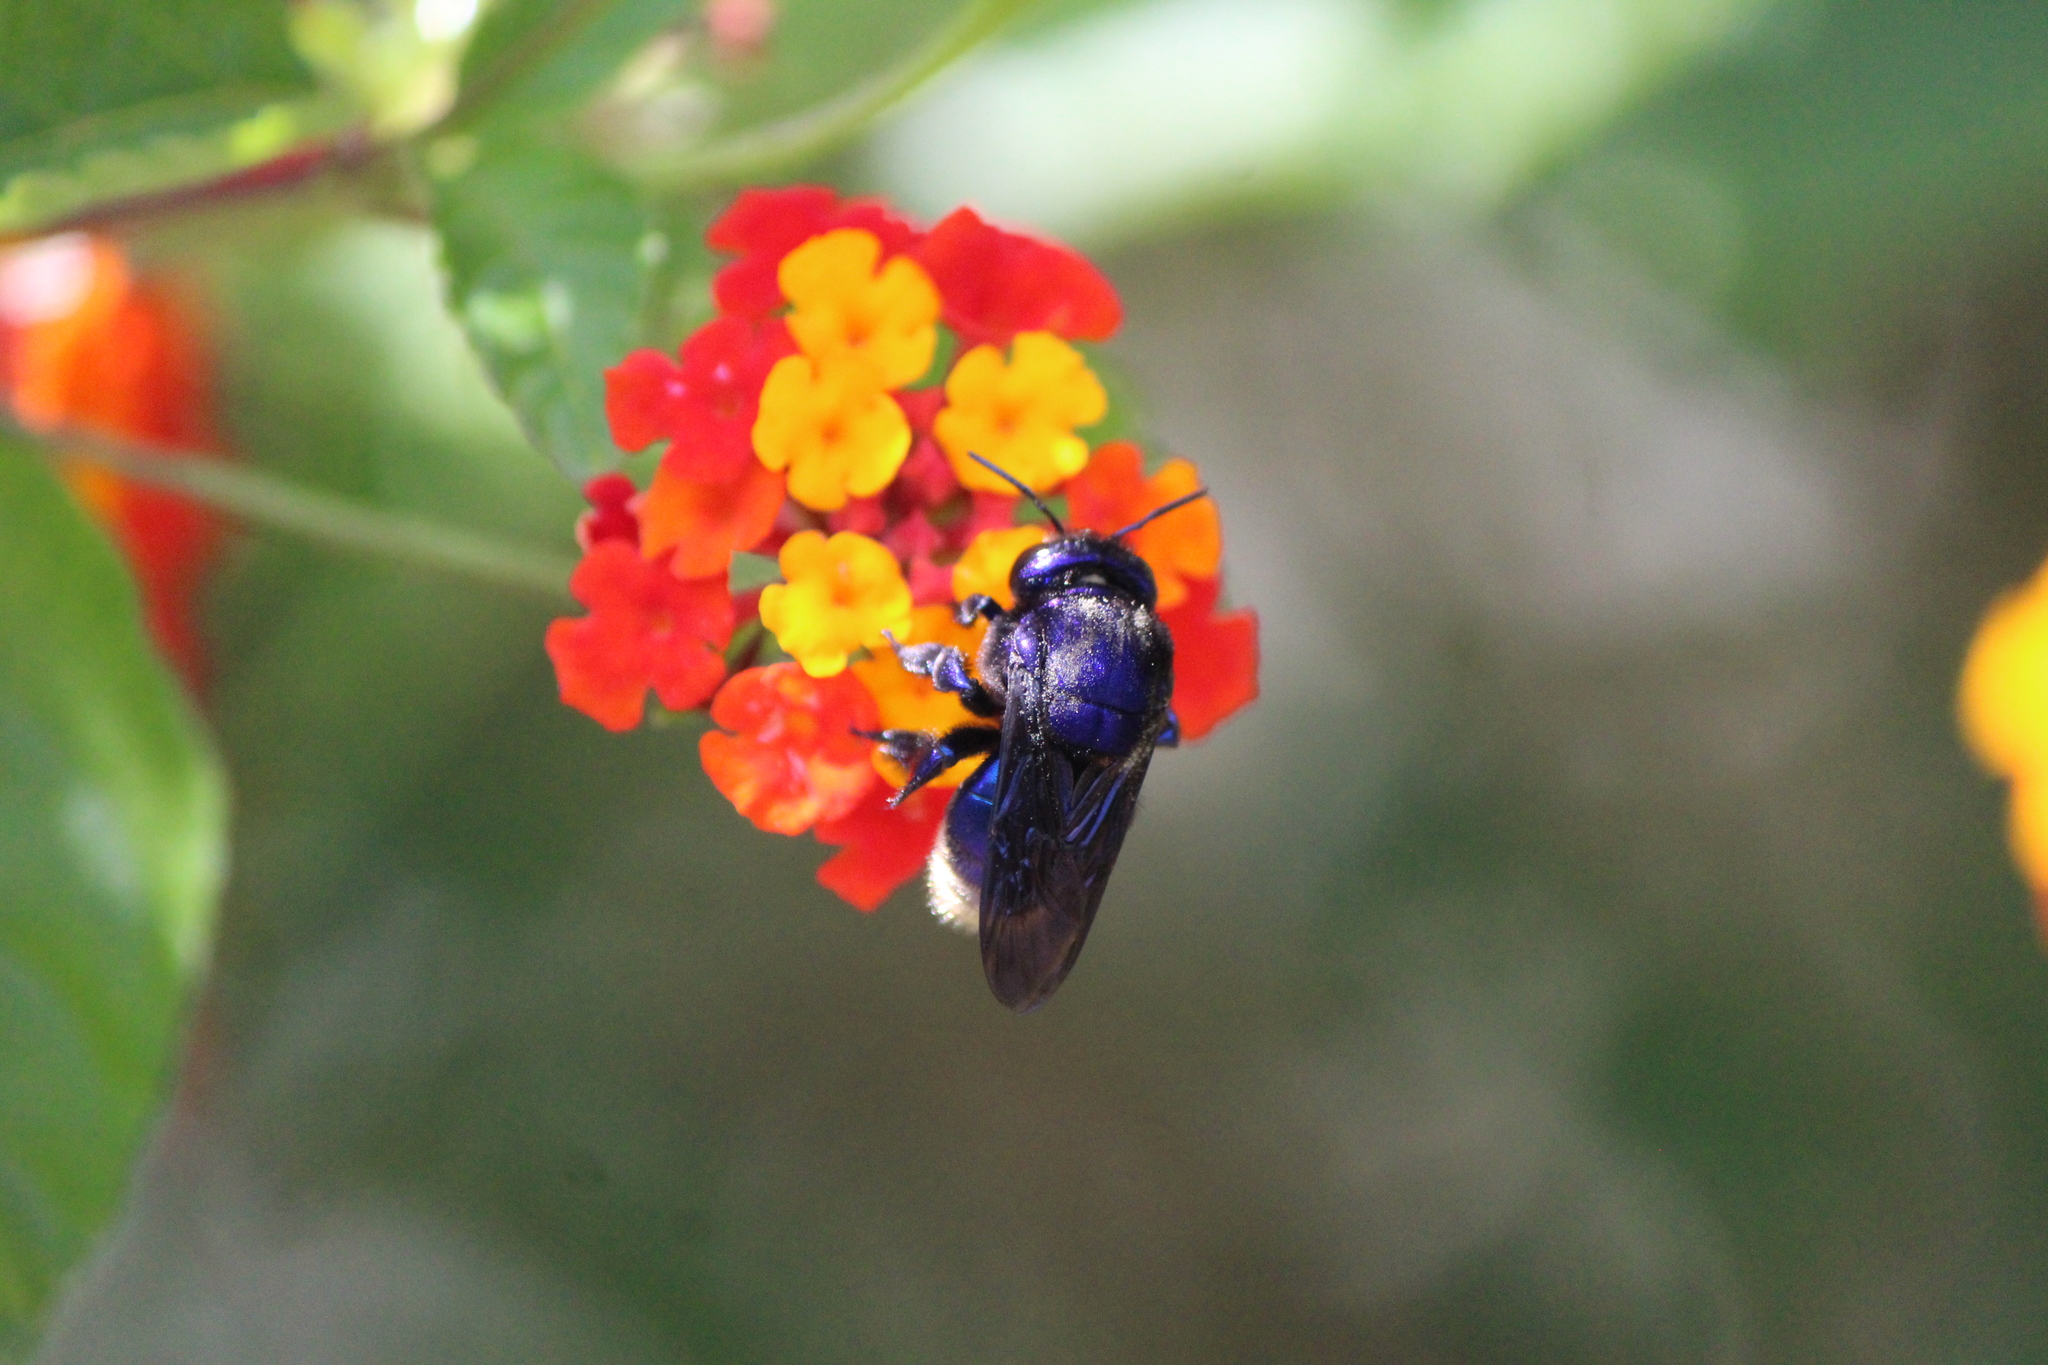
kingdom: Animalia
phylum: Arthropoda
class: Insecta
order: Hymenoptera
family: Apidae
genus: Eufriesea
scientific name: Eufriesea caerulescens
